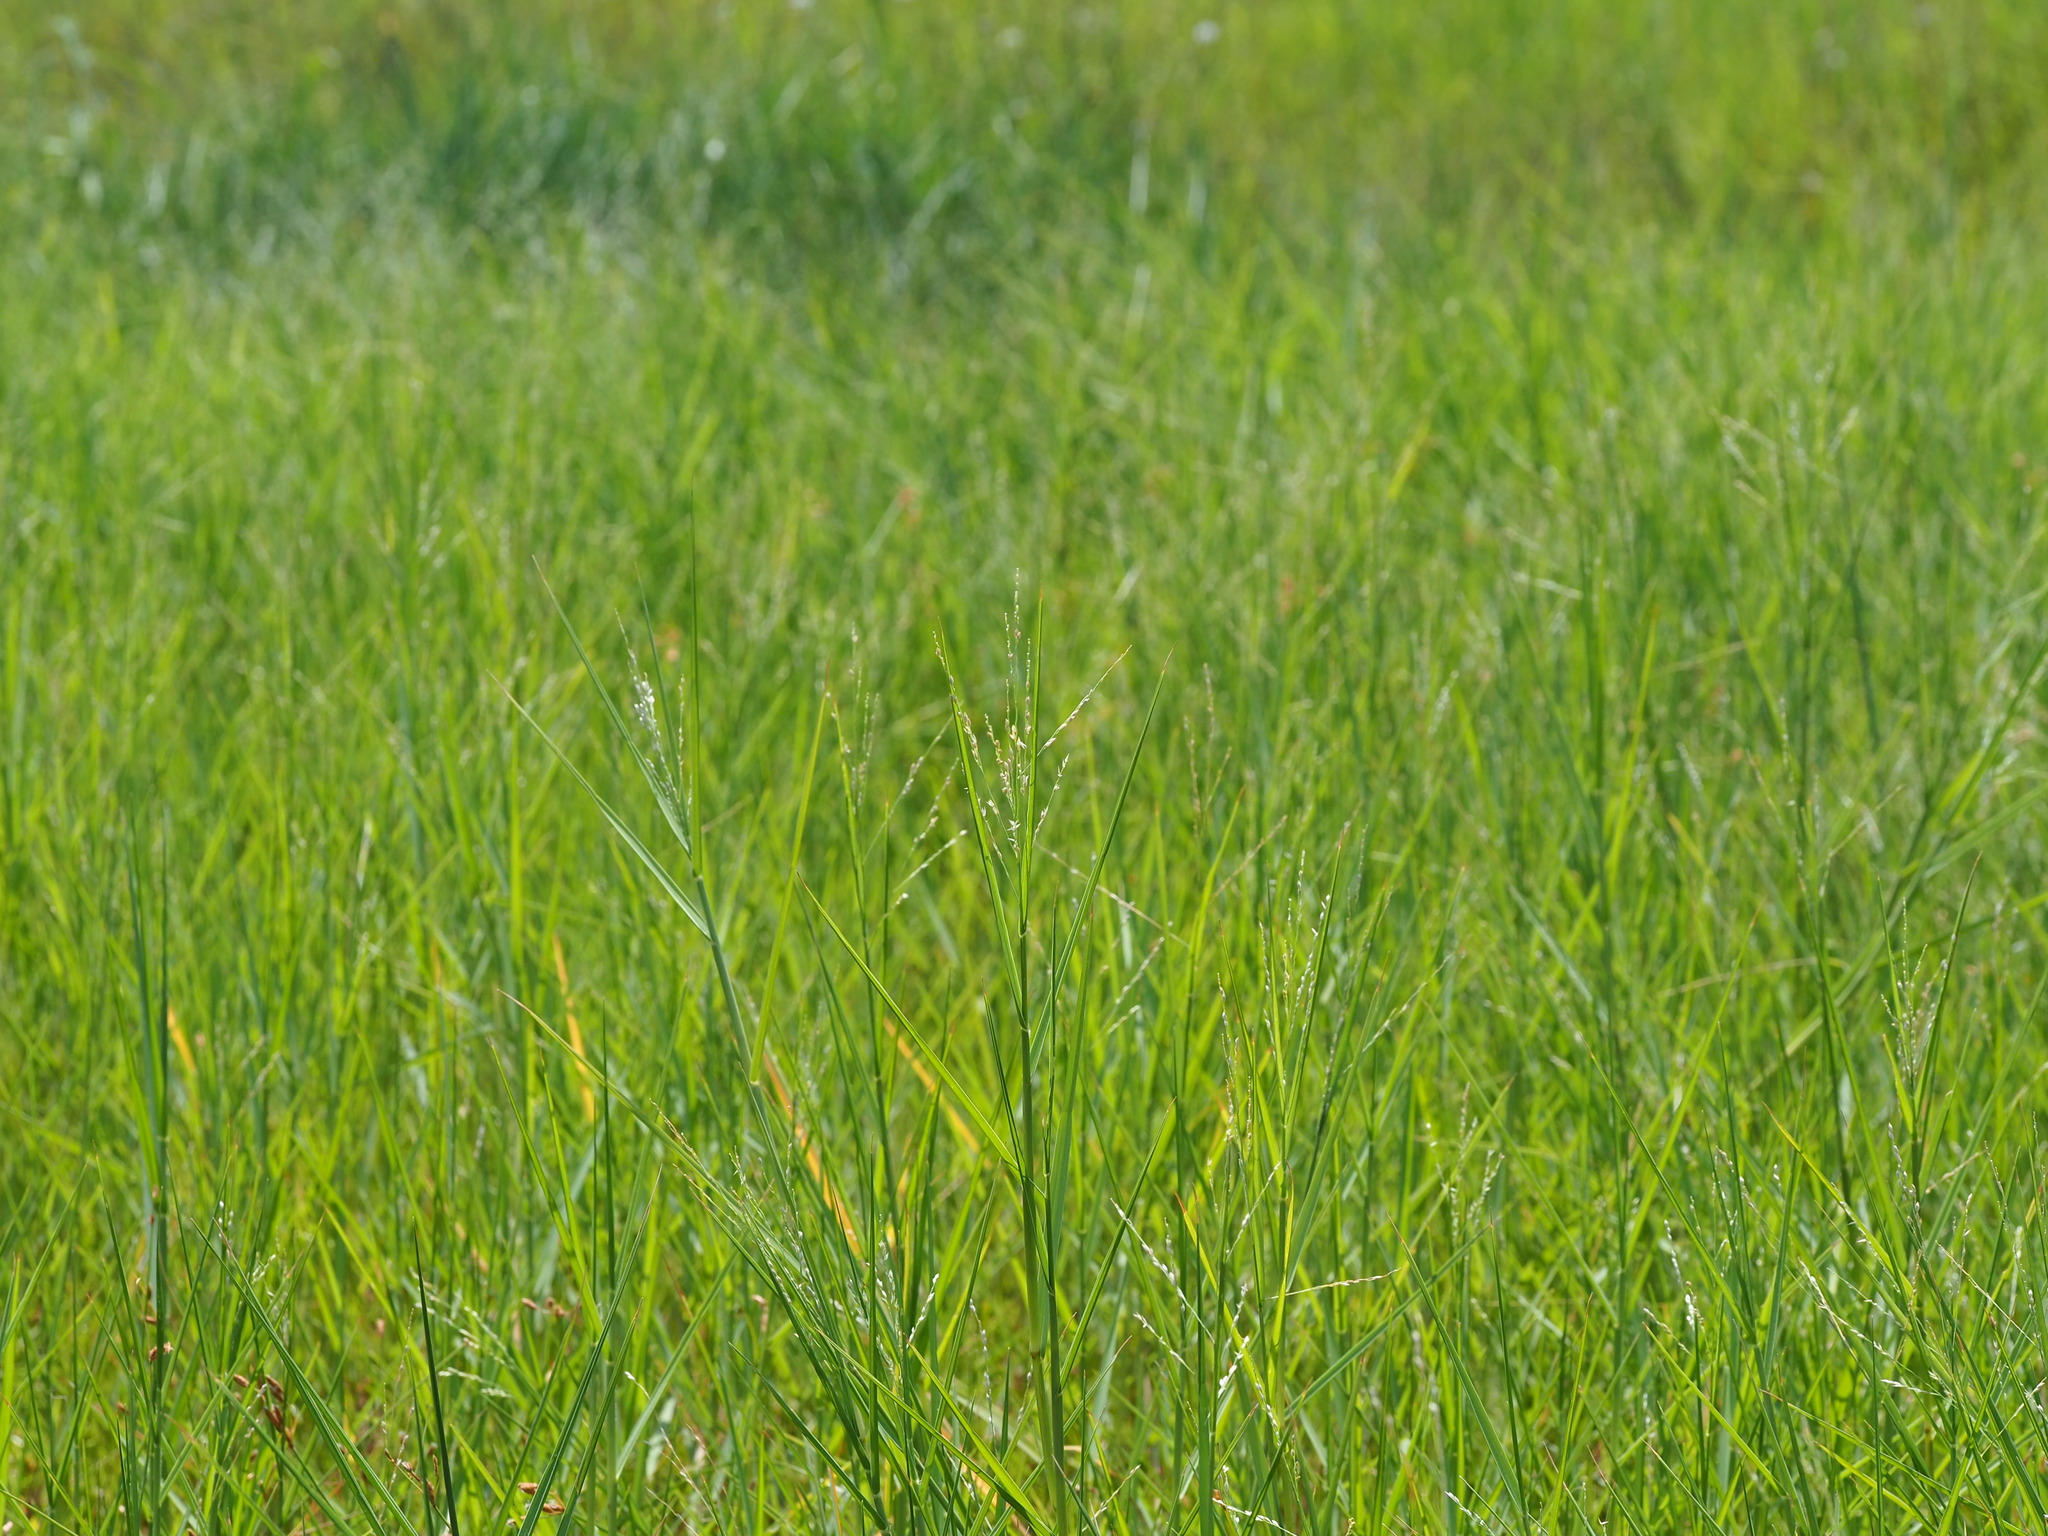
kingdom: Plantae
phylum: Tracheophyta
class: Liliopsida
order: Poales
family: Poaceae
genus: Panicum
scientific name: Panicum repens
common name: Torpedo grass
